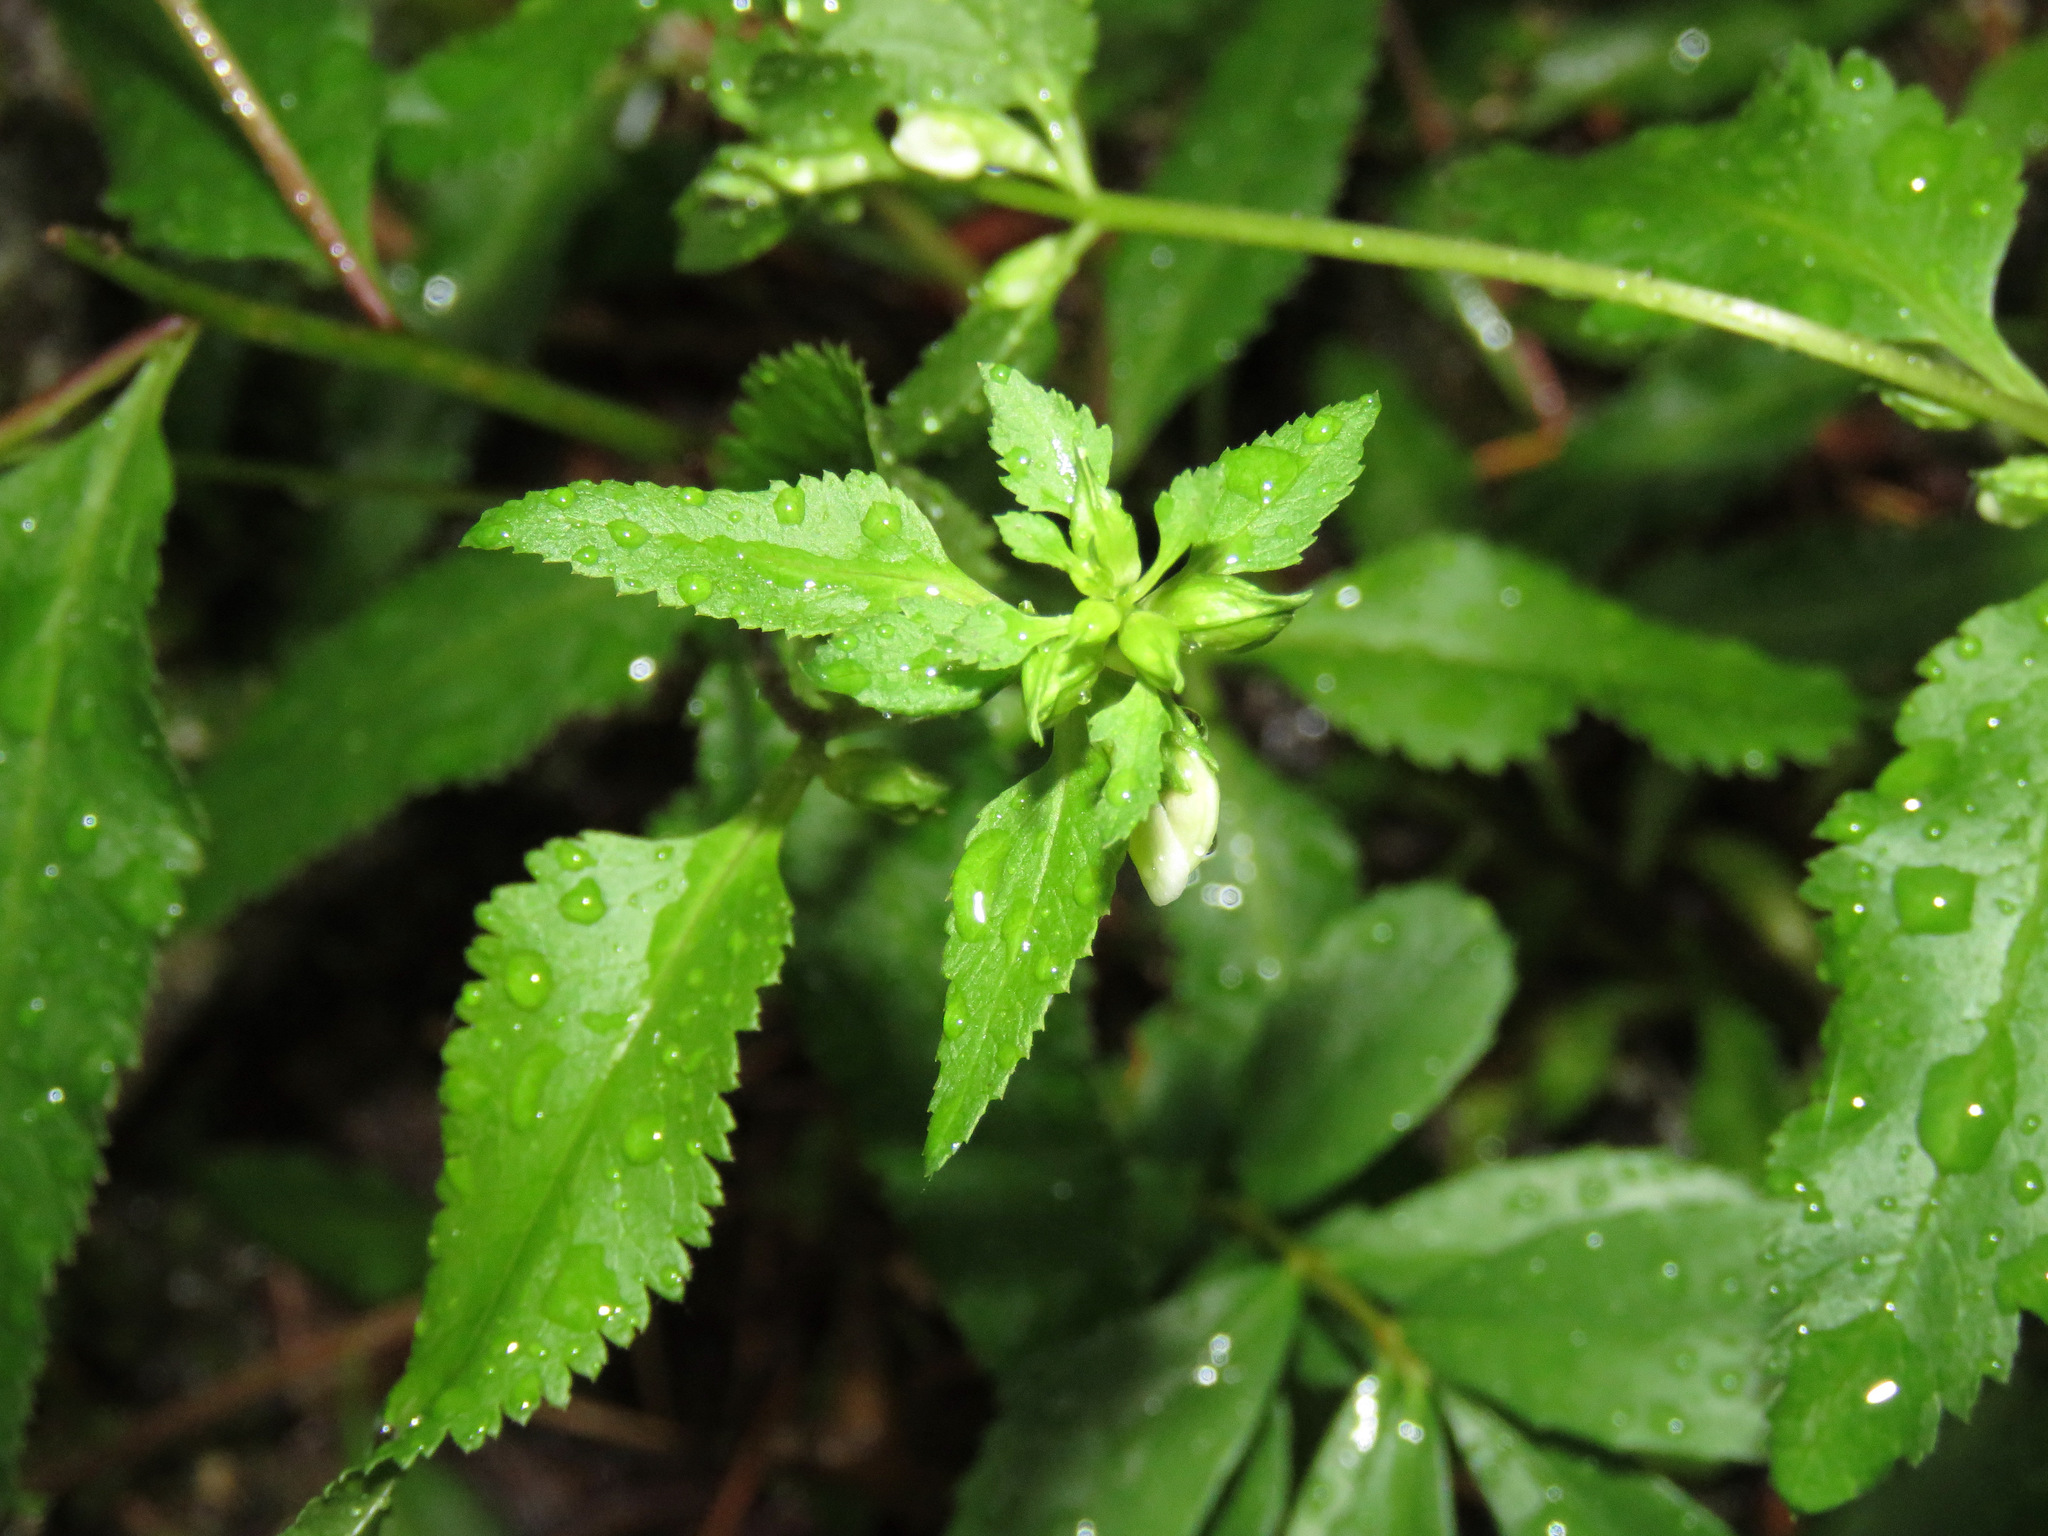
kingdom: Plantae
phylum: Tracheophyta
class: Magnoliopsida
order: Lamiales
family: Orobanchaceae
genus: Pedicularis
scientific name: Pedicularis racemosa
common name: Leafy lousewort
